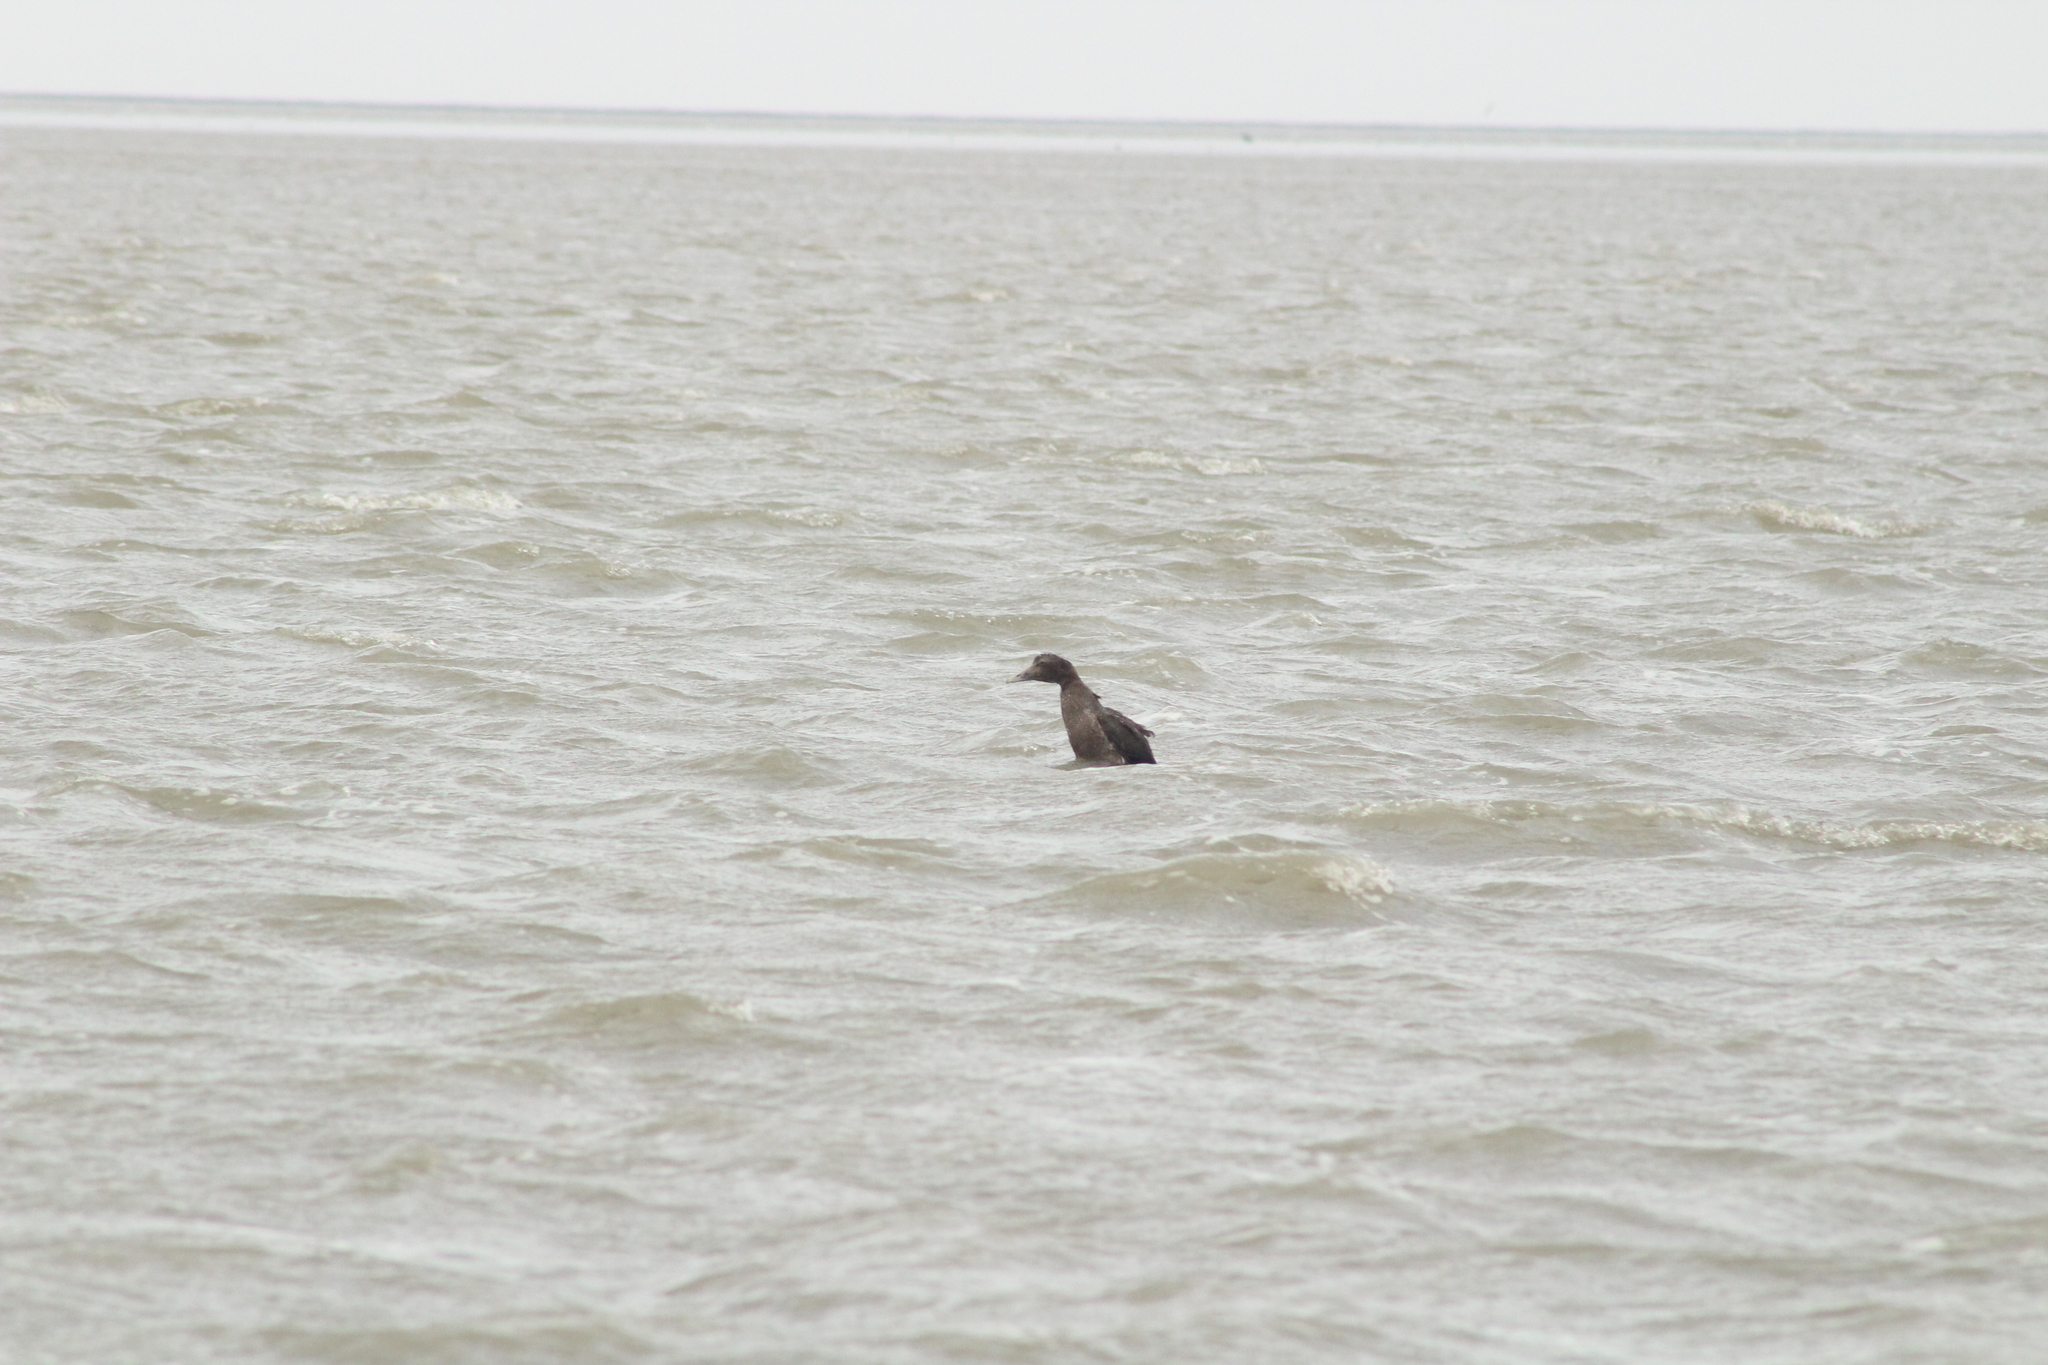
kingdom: Animalia
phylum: Chordata
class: Aves
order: Anseriformes
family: Anatidae
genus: Somateria
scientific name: Somateria mollissima
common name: Common eider
